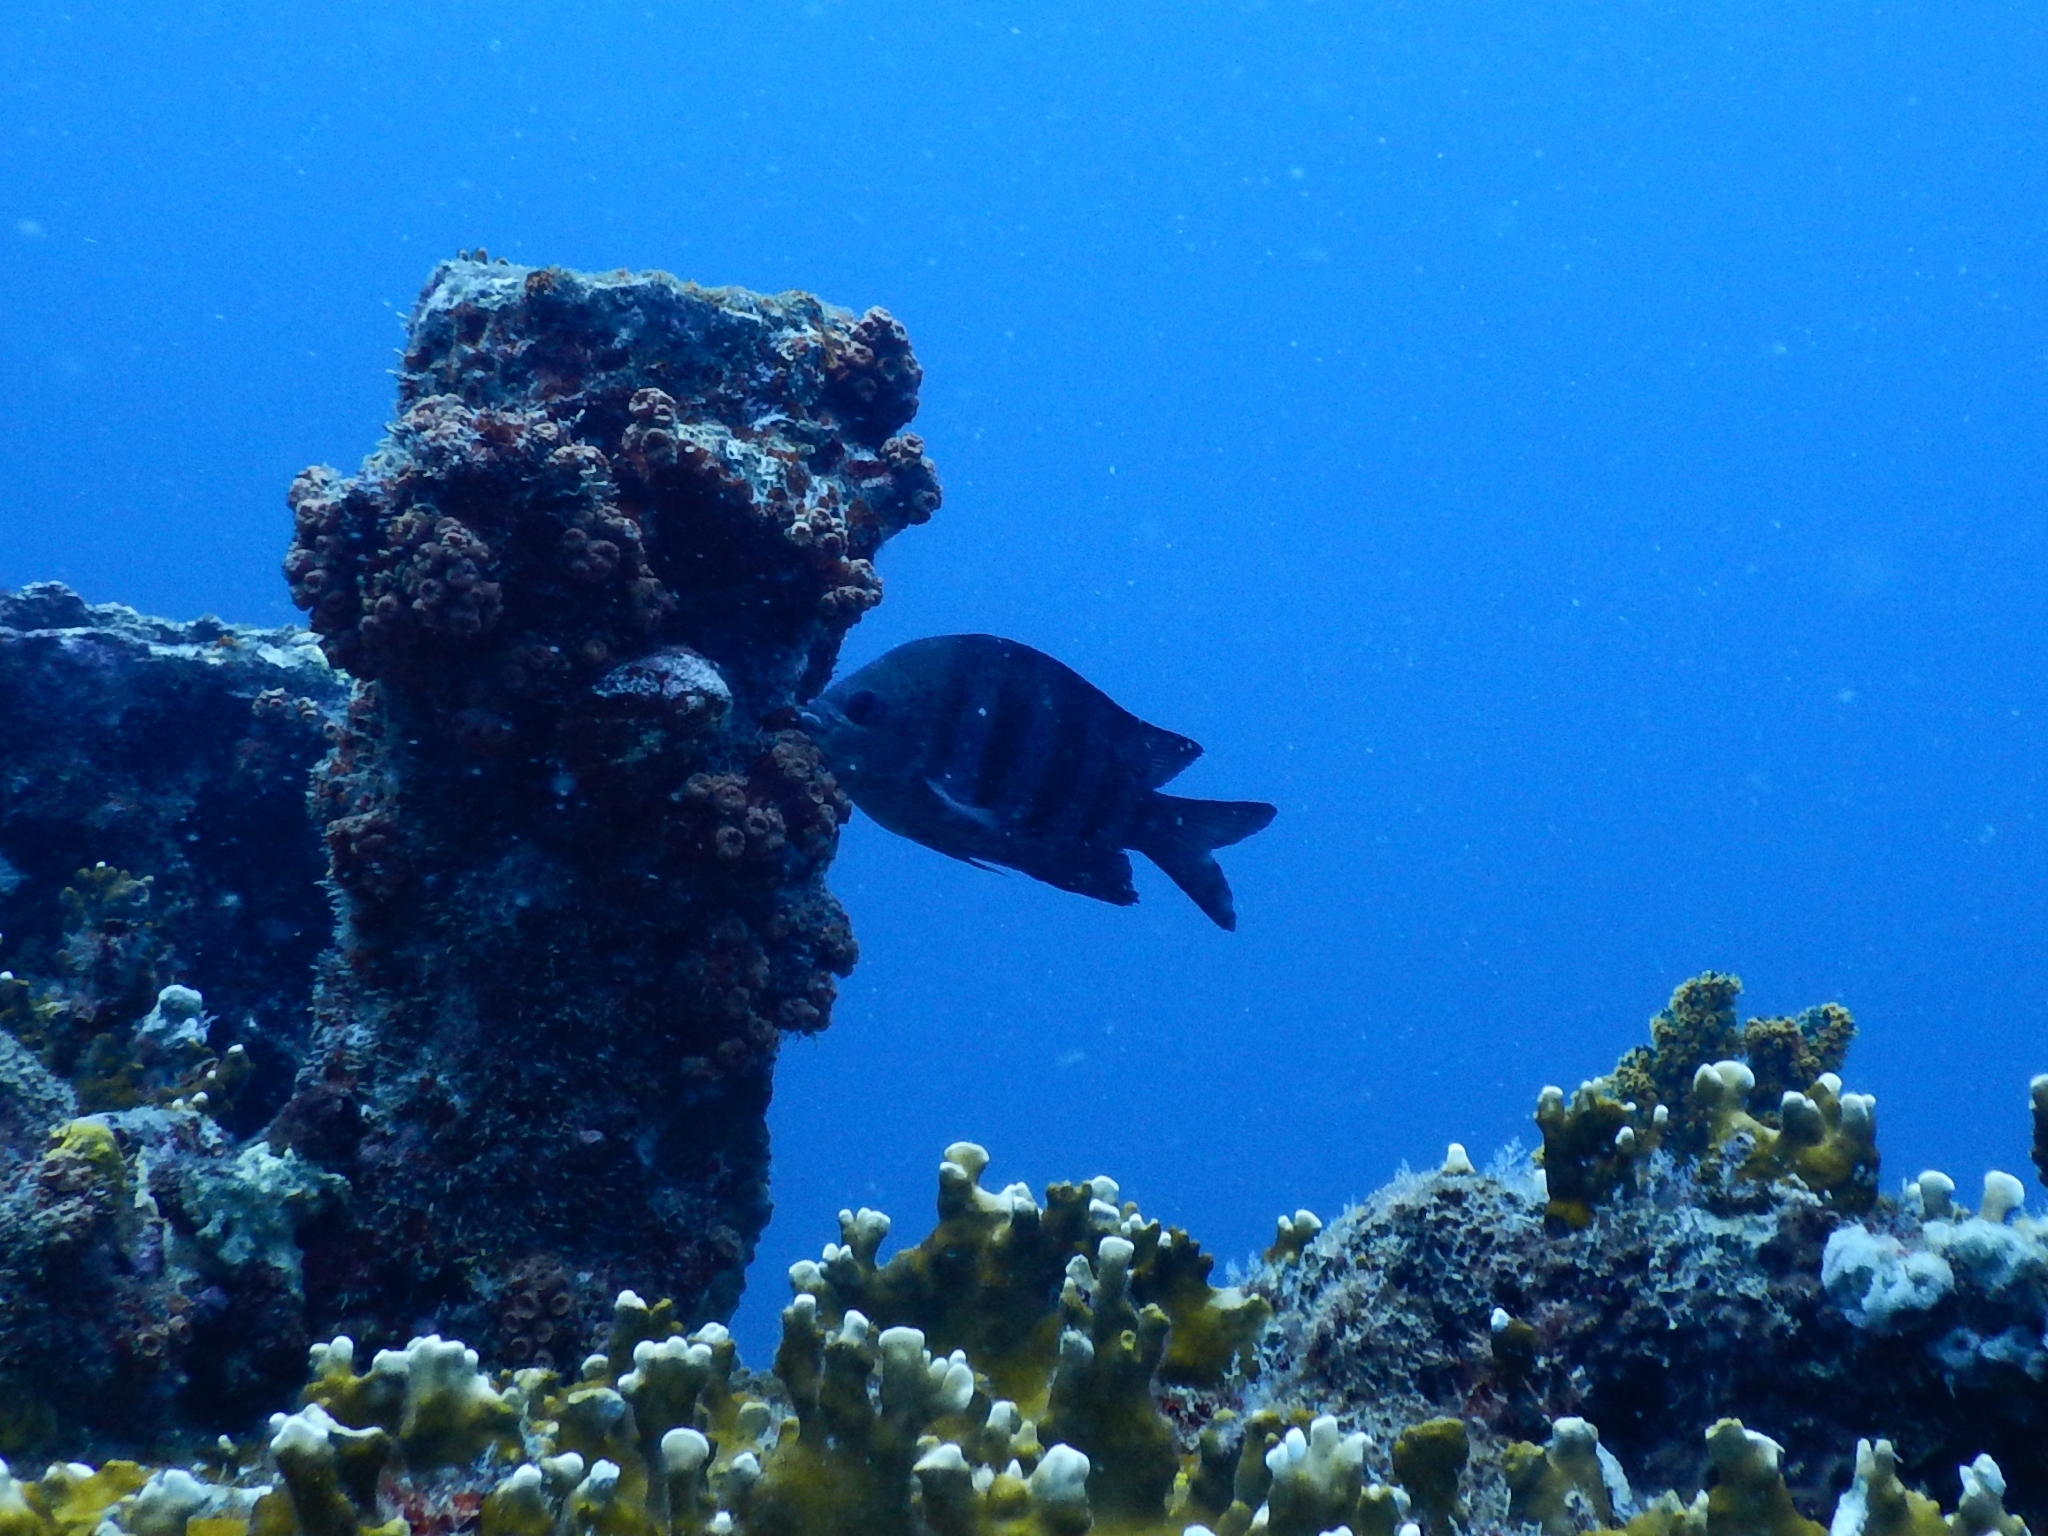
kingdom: Animalia
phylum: Chordata
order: Perciformes
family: Pomacentridae
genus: Abudefduf
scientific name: Abudefduf saxatilis
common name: Sergeant major
